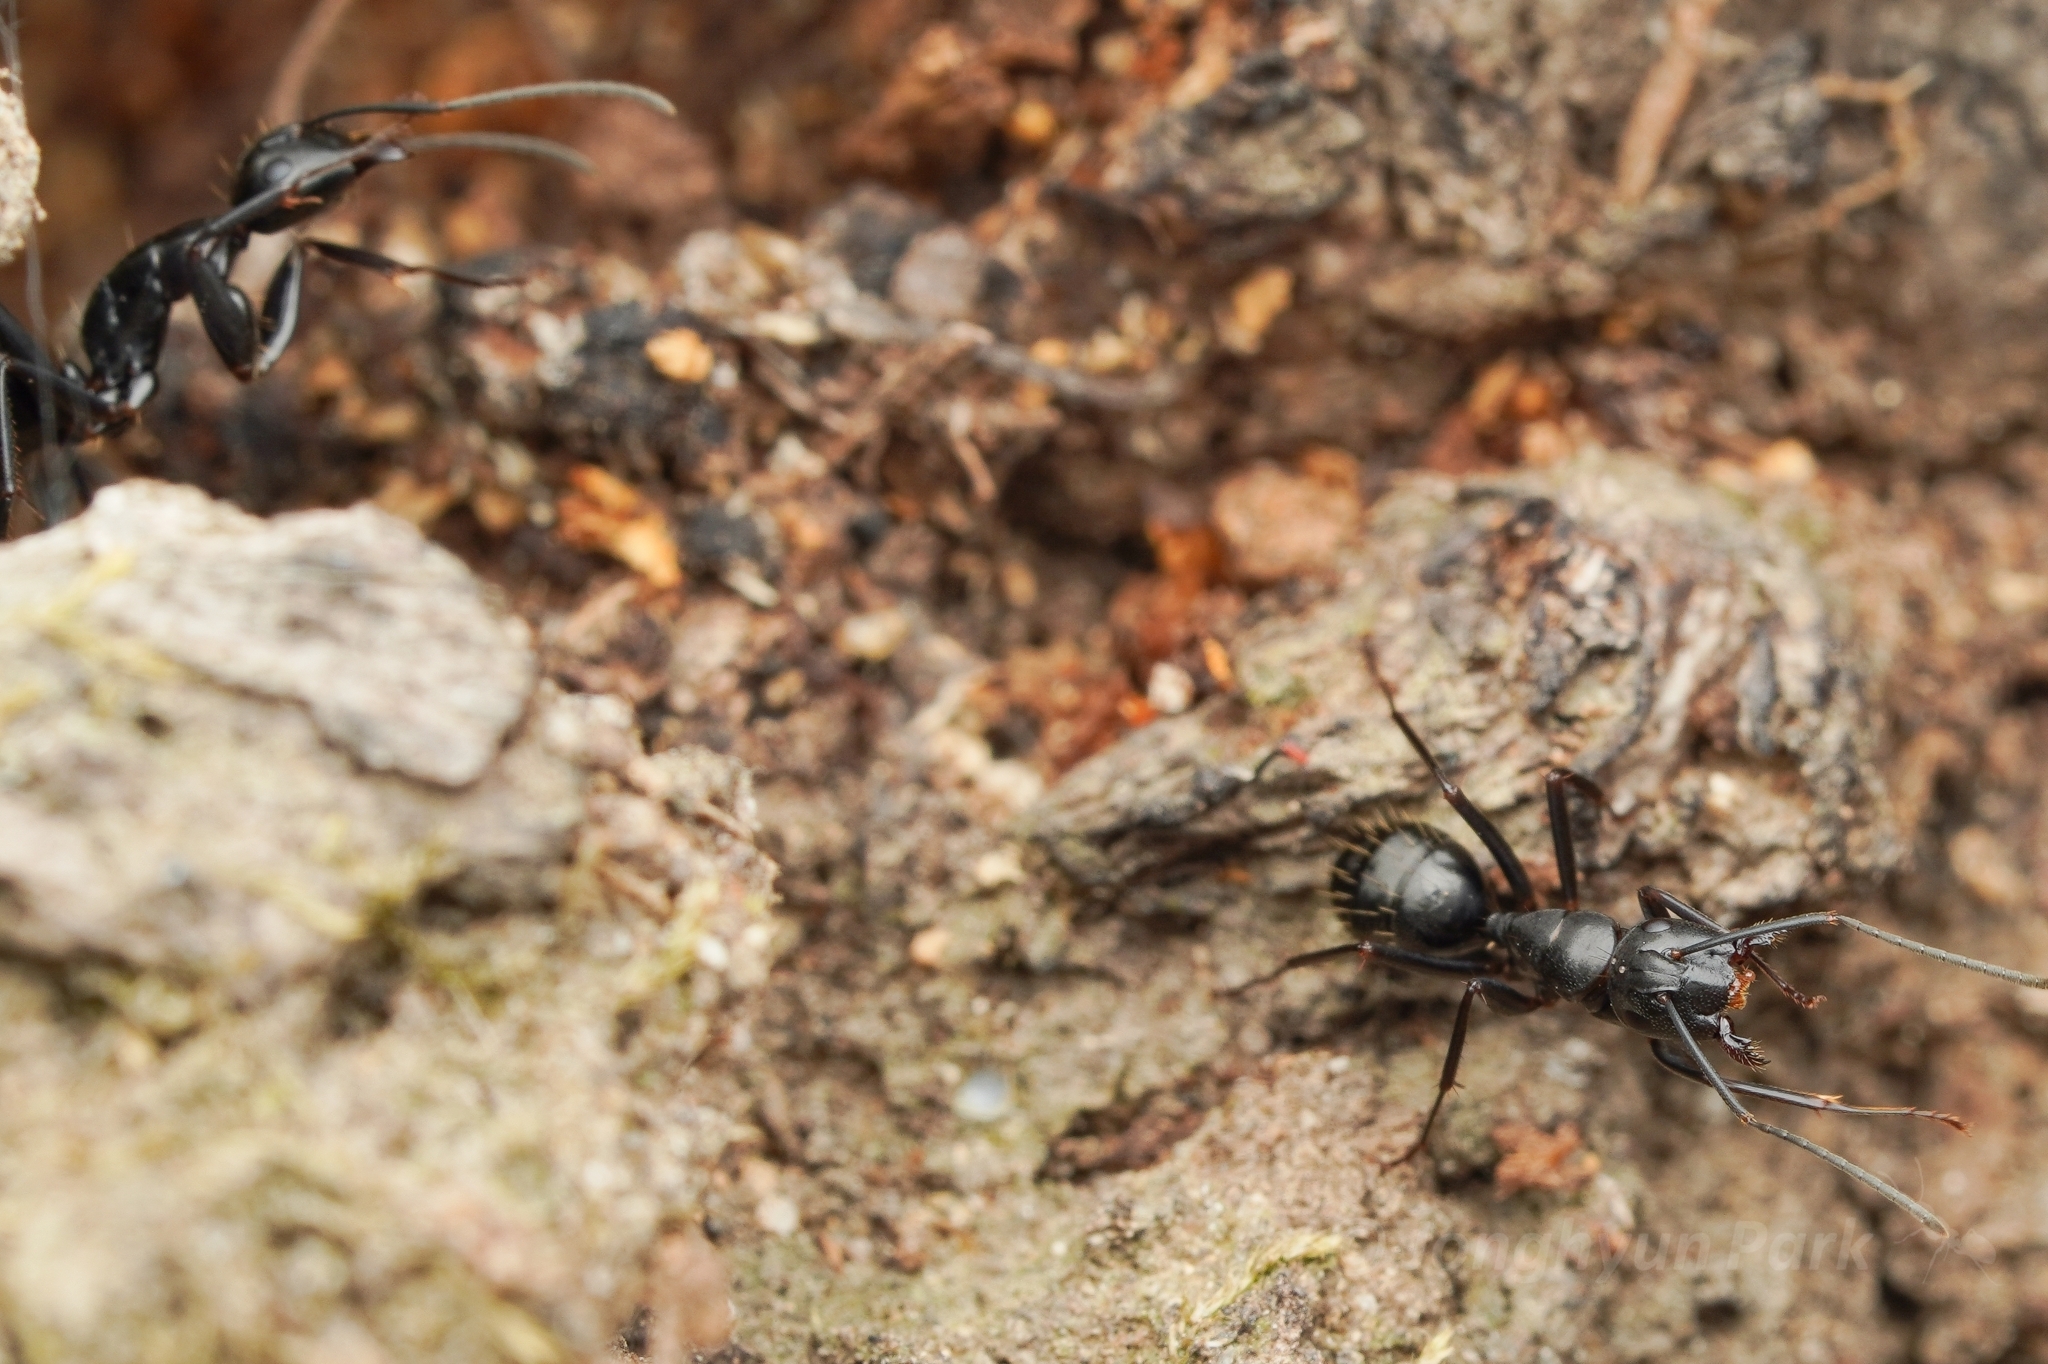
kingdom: Animalia
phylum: Arthropoda
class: Insecta
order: Hymenoptera
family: Formicidae
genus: Camponotus
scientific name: Camponotus concavus
